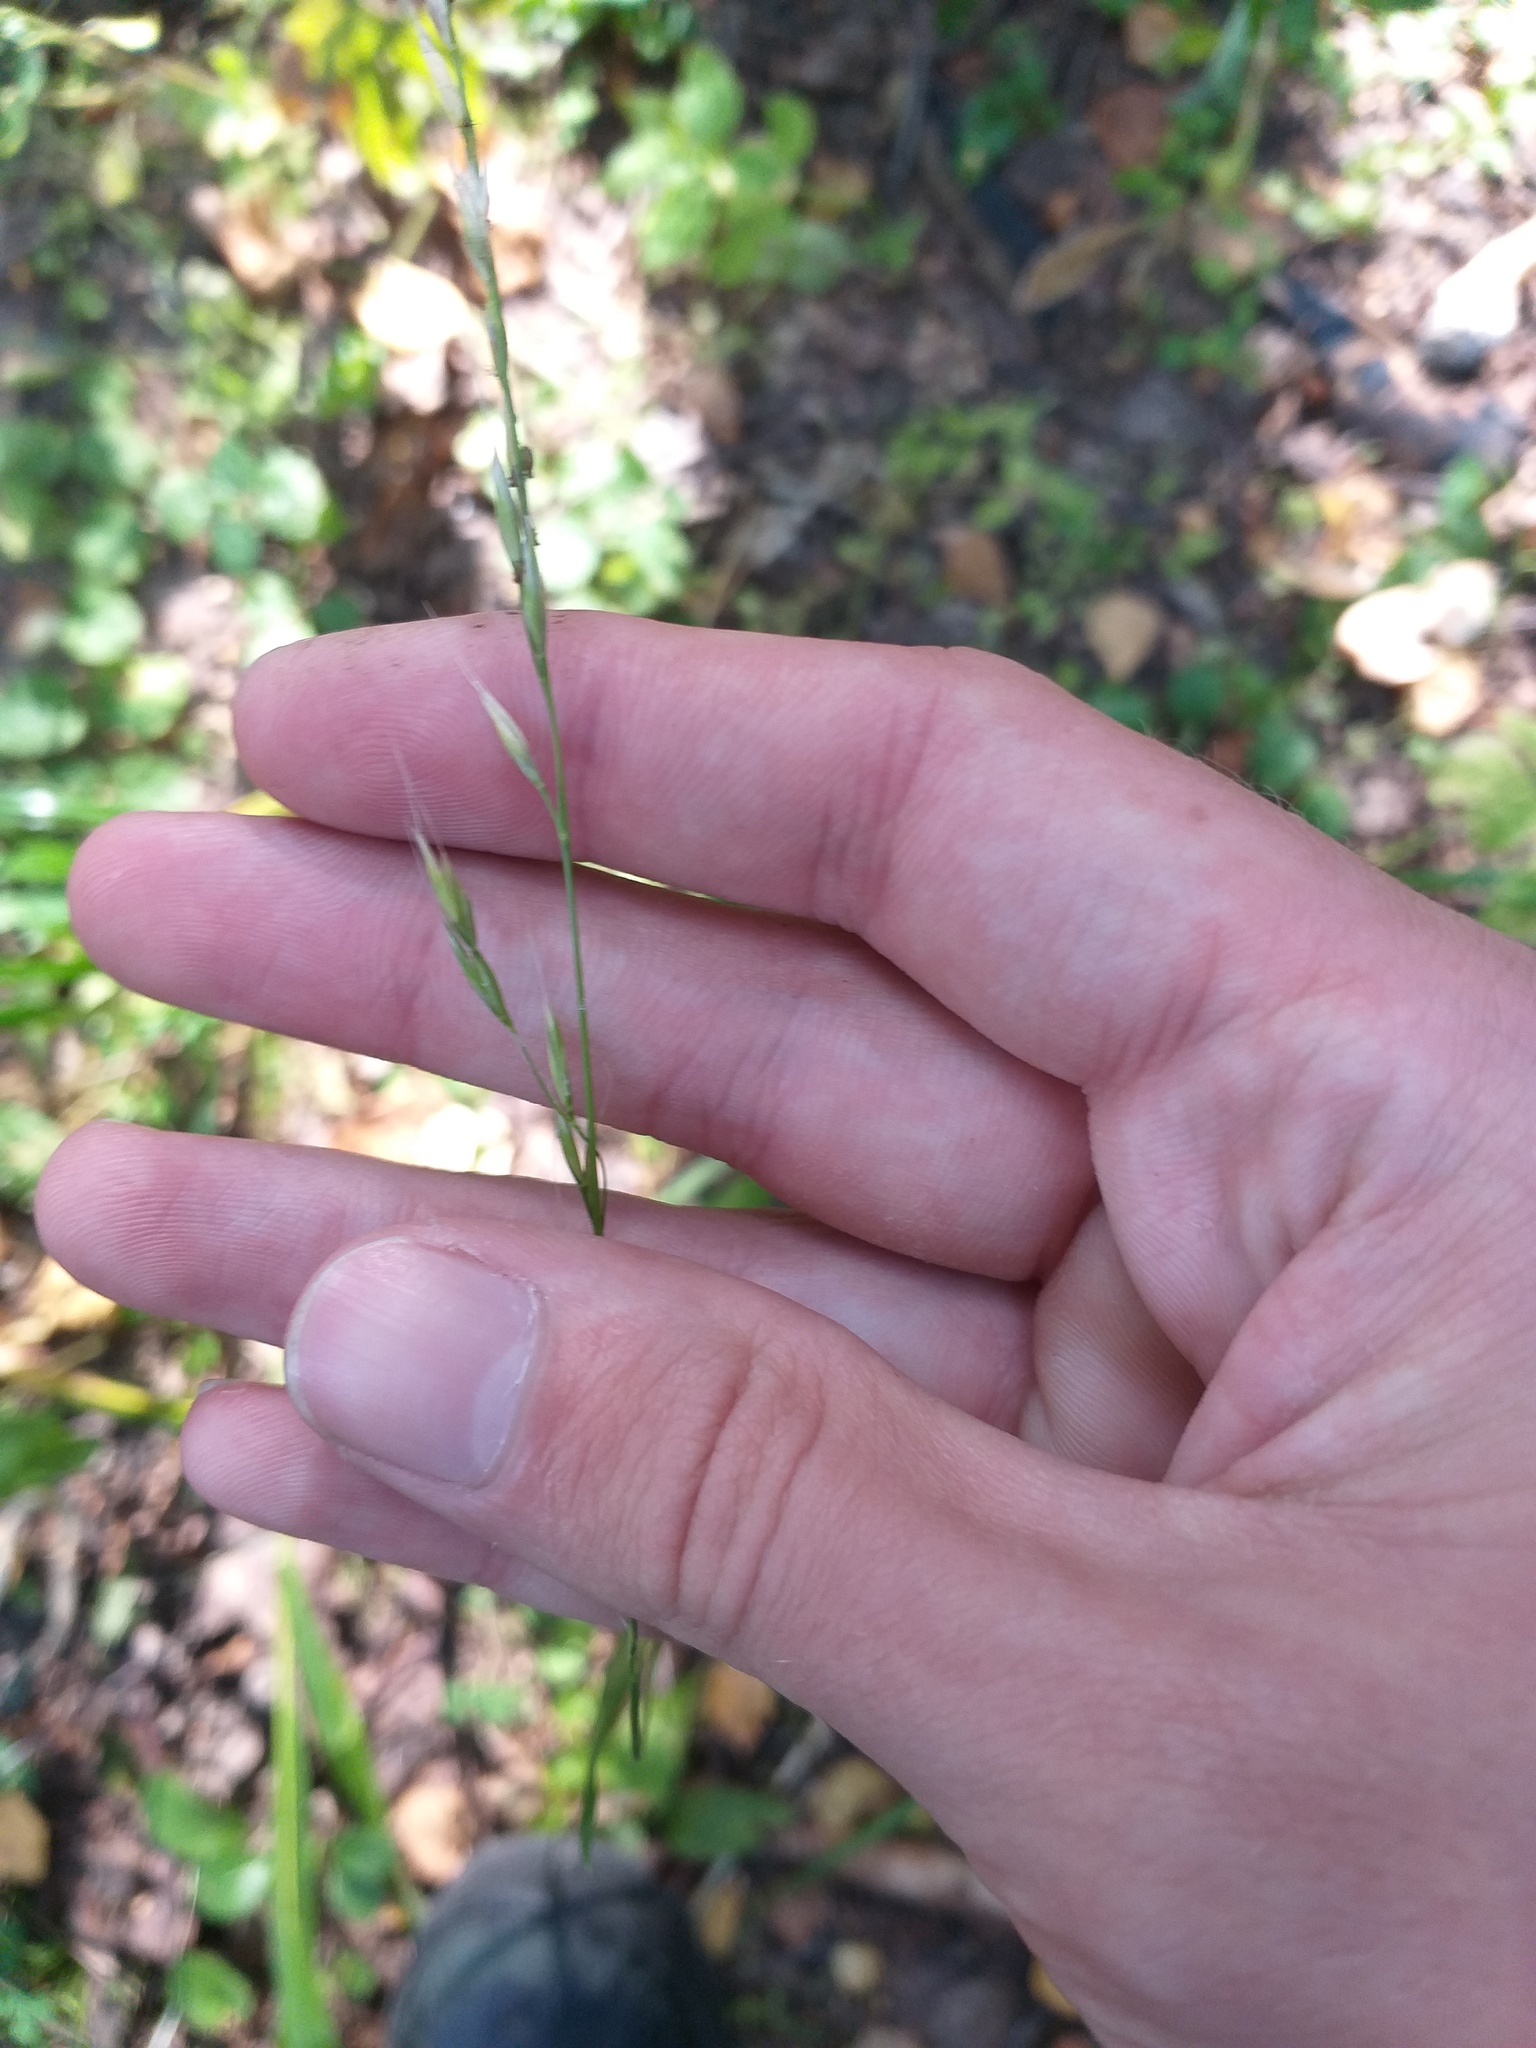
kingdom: Plantae
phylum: Tracheophyta
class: Liliopsida
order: Poales
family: Poaceae
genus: Lolium
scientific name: Lolium giganteum
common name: Giant fescue
